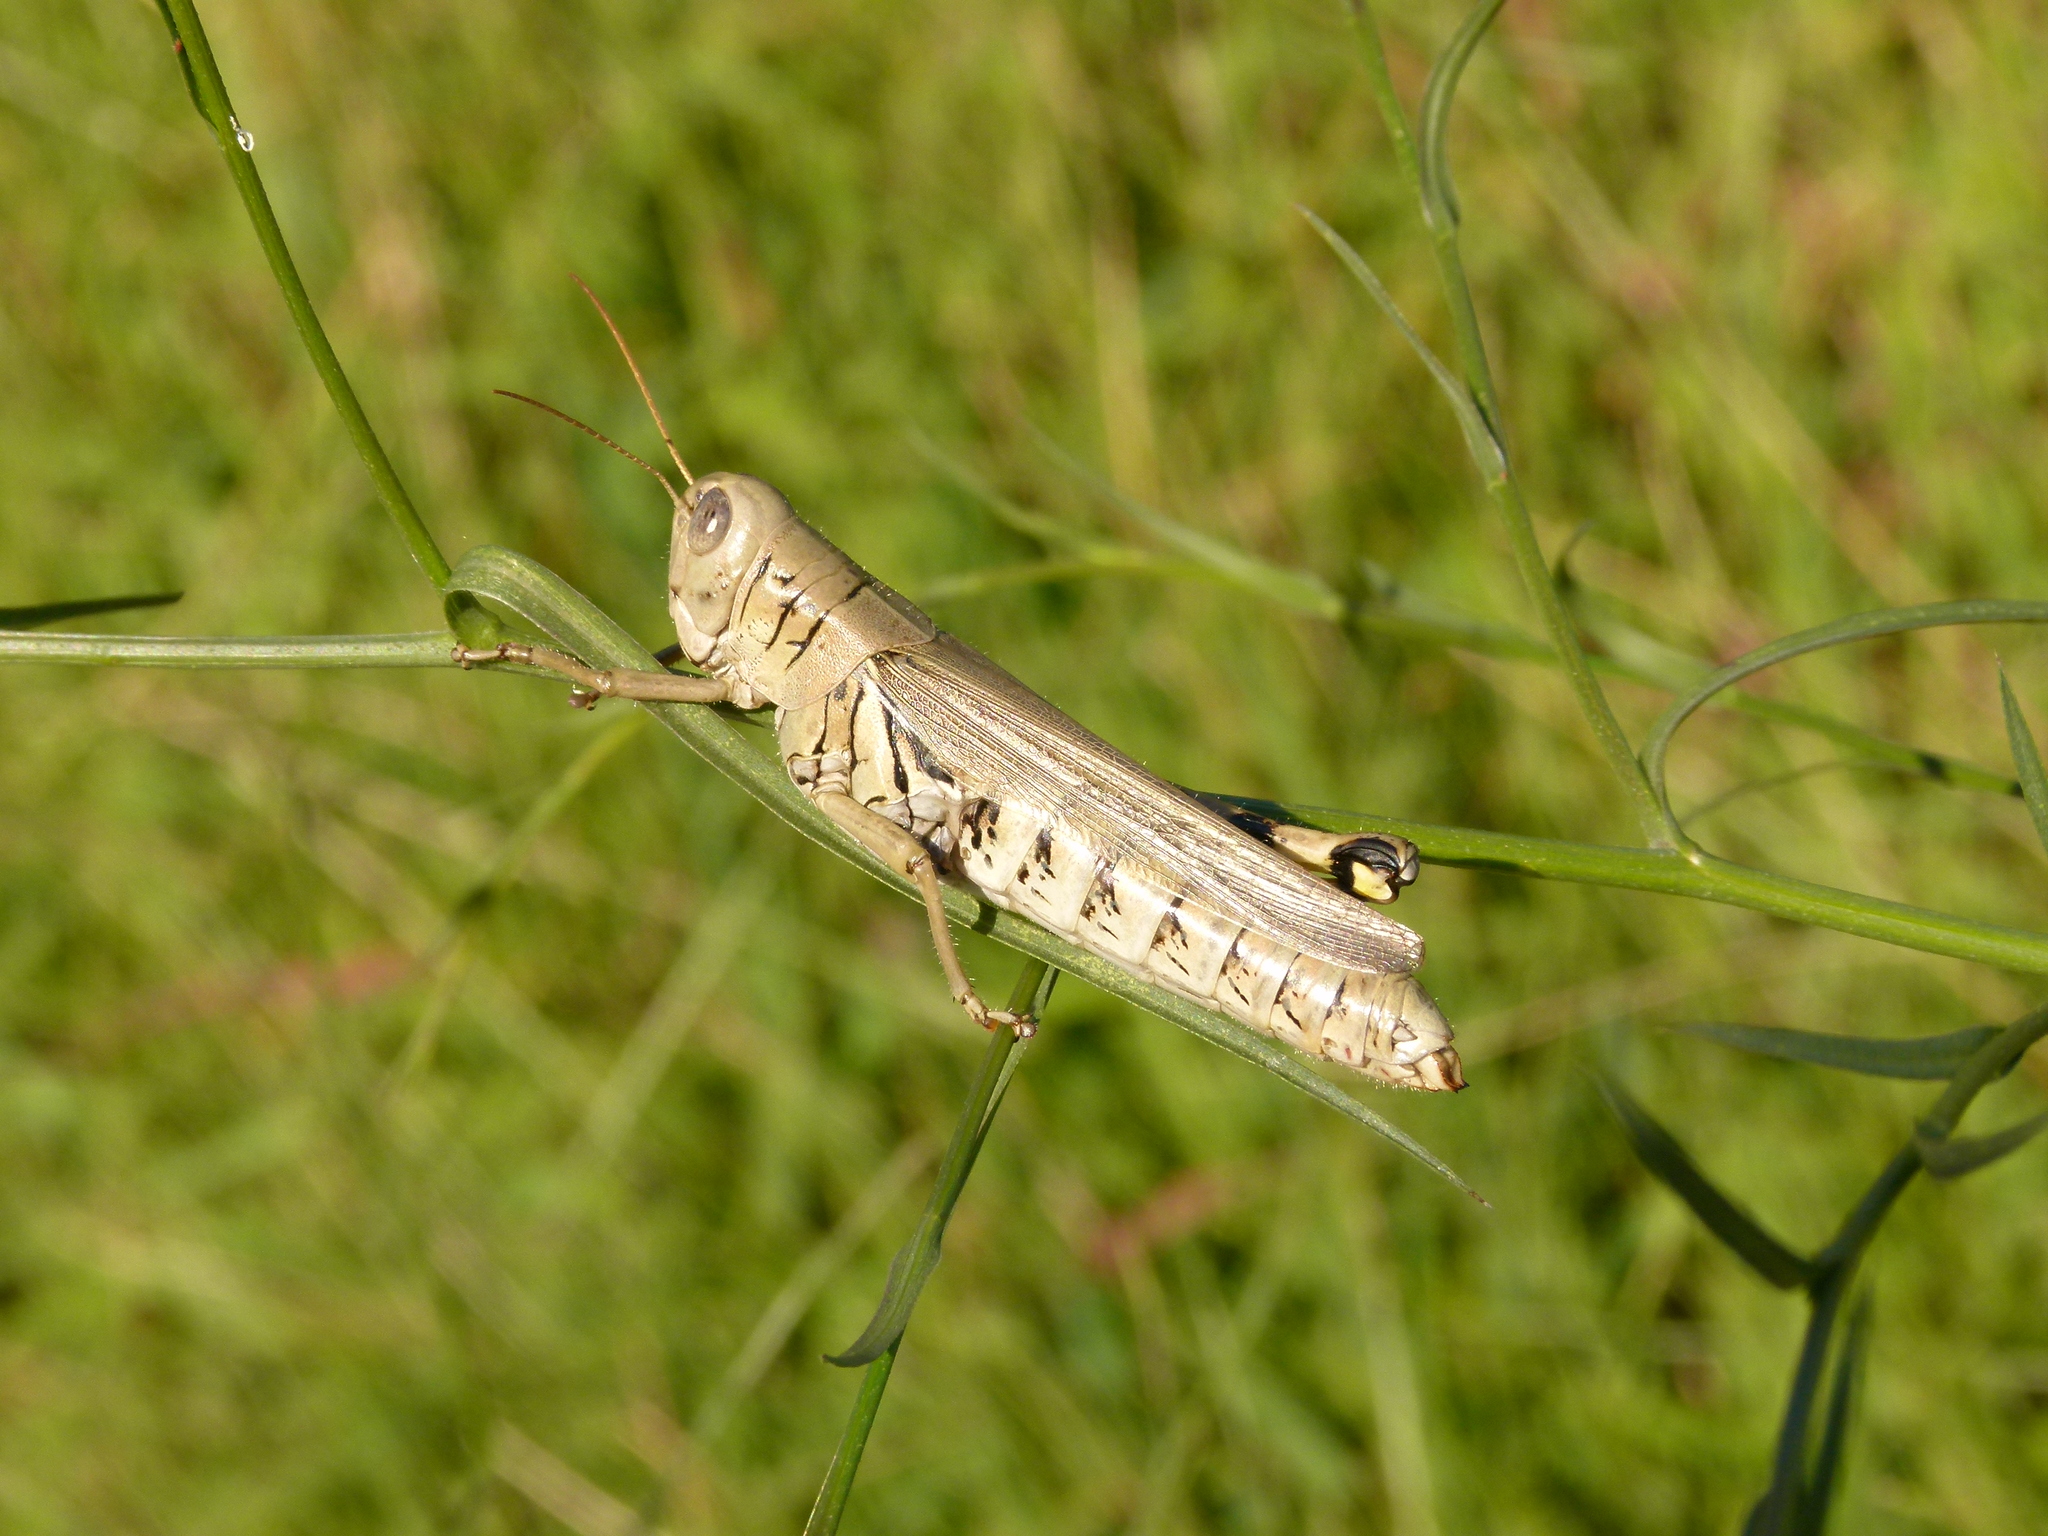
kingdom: Animalia
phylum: Arthropoda
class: Insecta
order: Orthoptera
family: Acrididae
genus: Melanoplus
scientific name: Melanoplus differentialis
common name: Differential grasshopper
